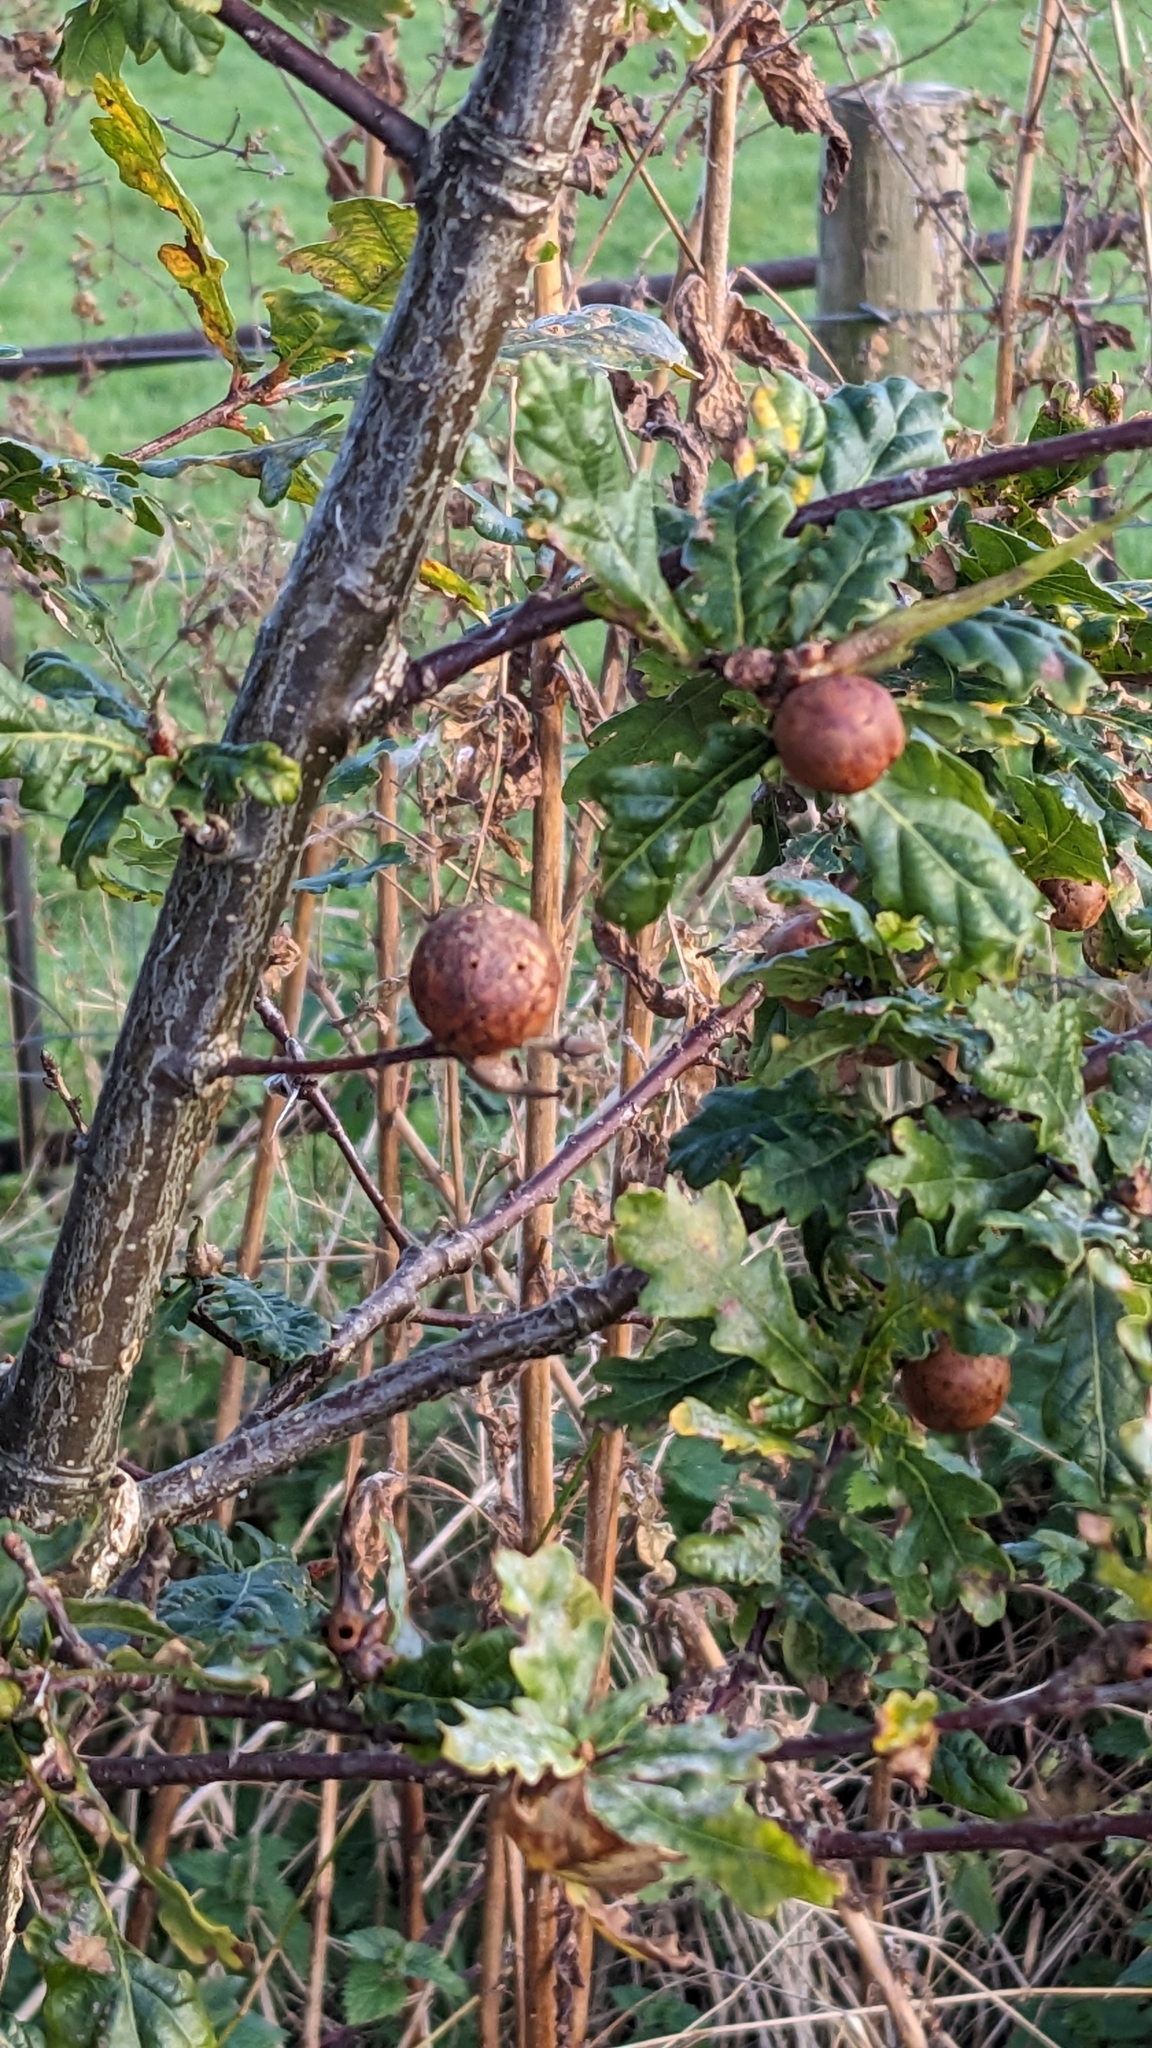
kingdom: Animalia
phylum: Arthropoda
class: Insecta
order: Hymenoptera
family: Cynipidae
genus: Andricus
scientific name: Andricus kollari
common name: Marble gall
